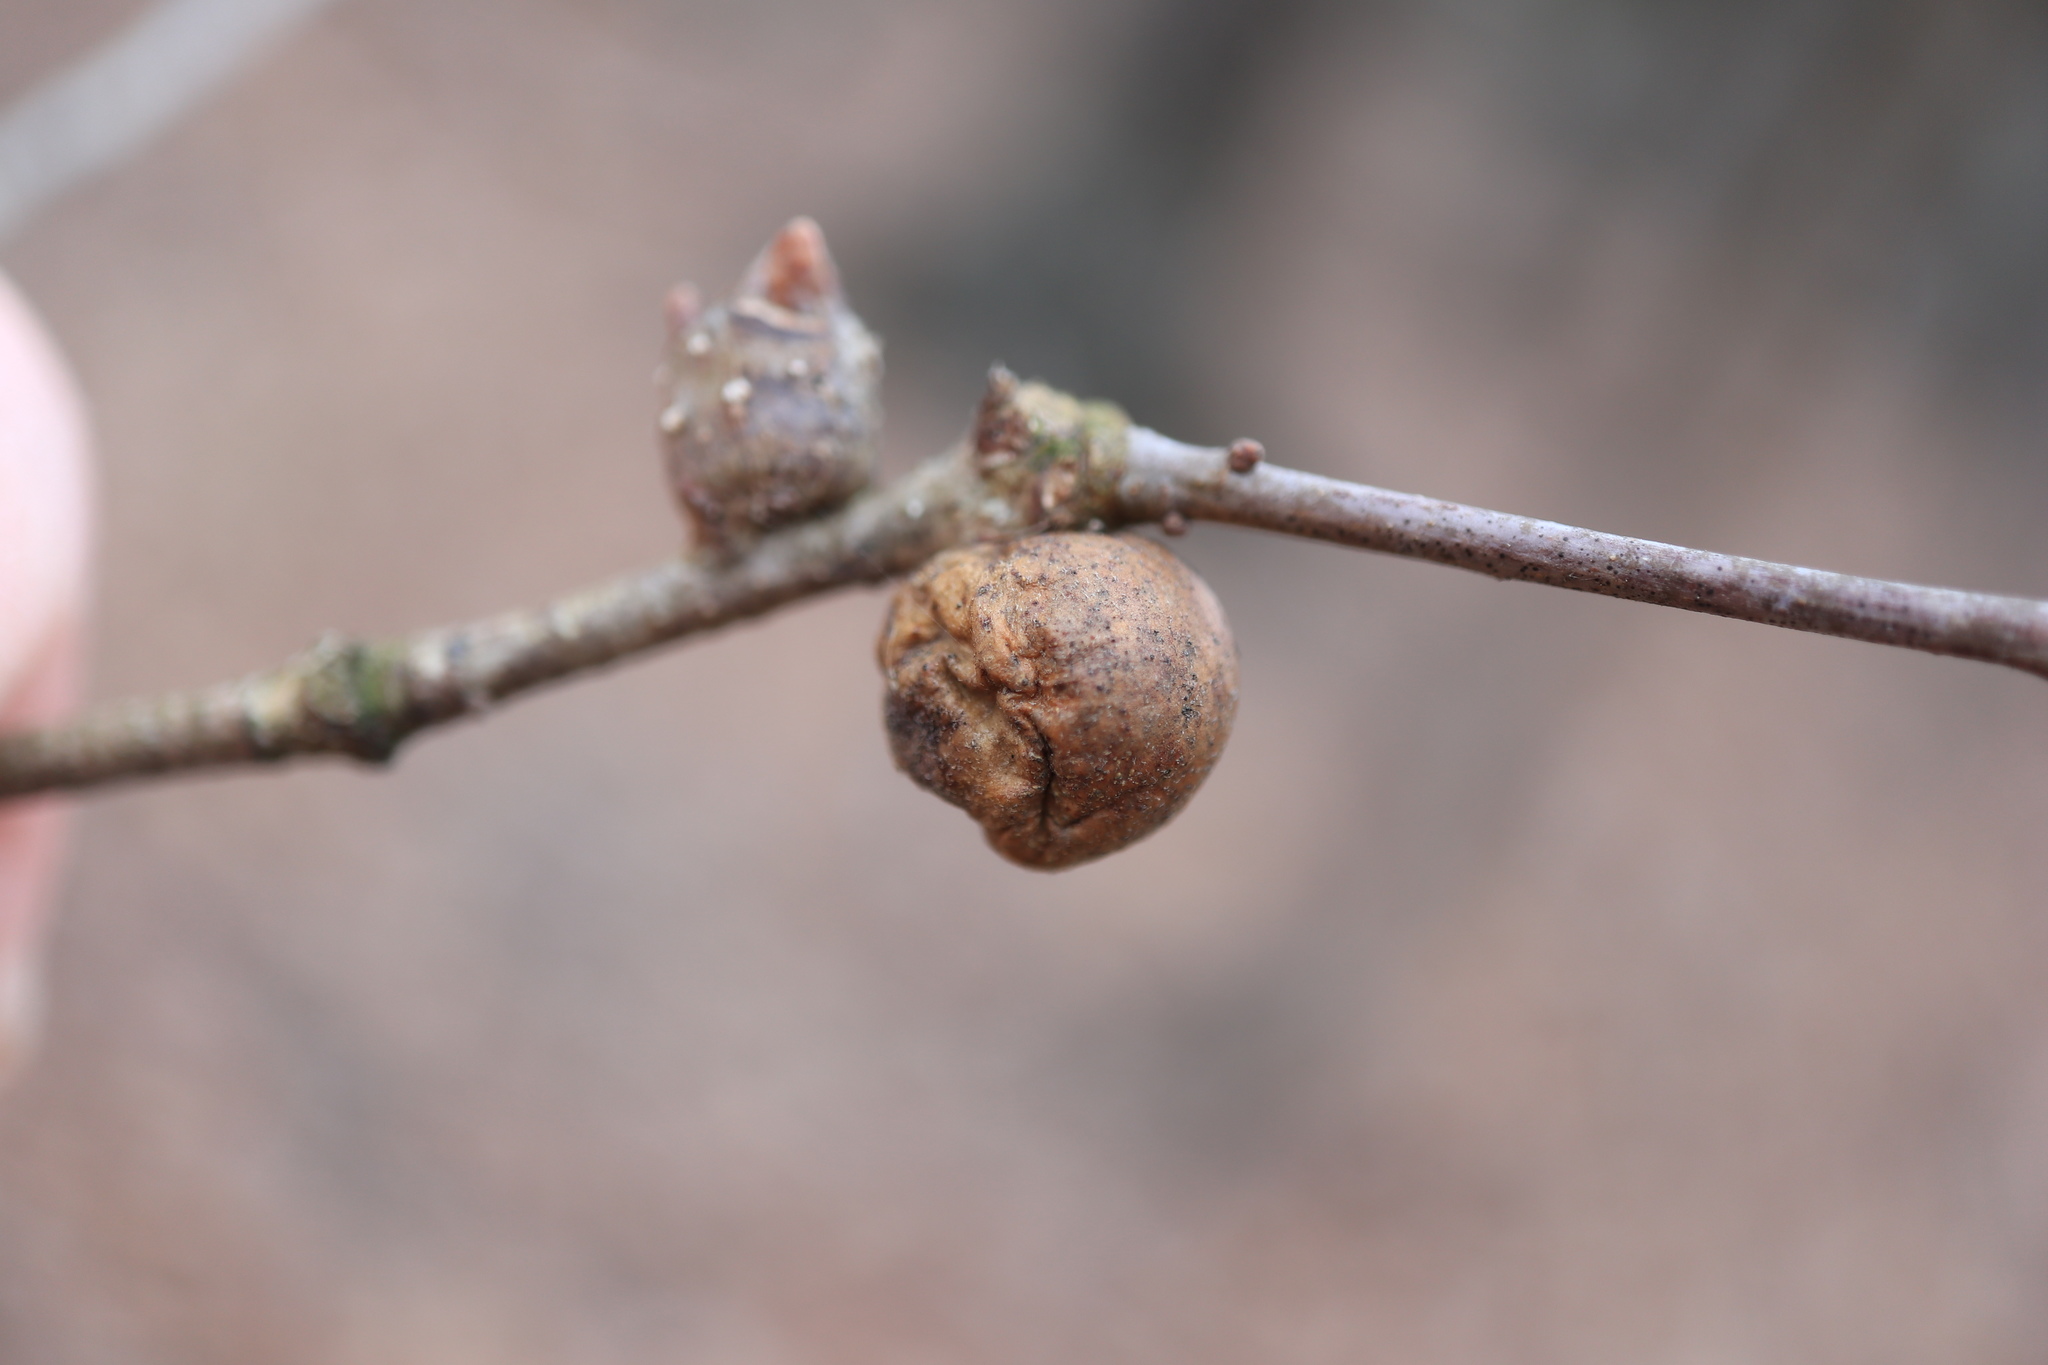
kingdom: Animalia
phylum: Arthropoda
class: Insecta
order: Hymenoptera
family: Cynipidae
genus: Disholcaspis
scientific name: Disholcaspis quercusglobulus
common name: Round bullet gall wasp
